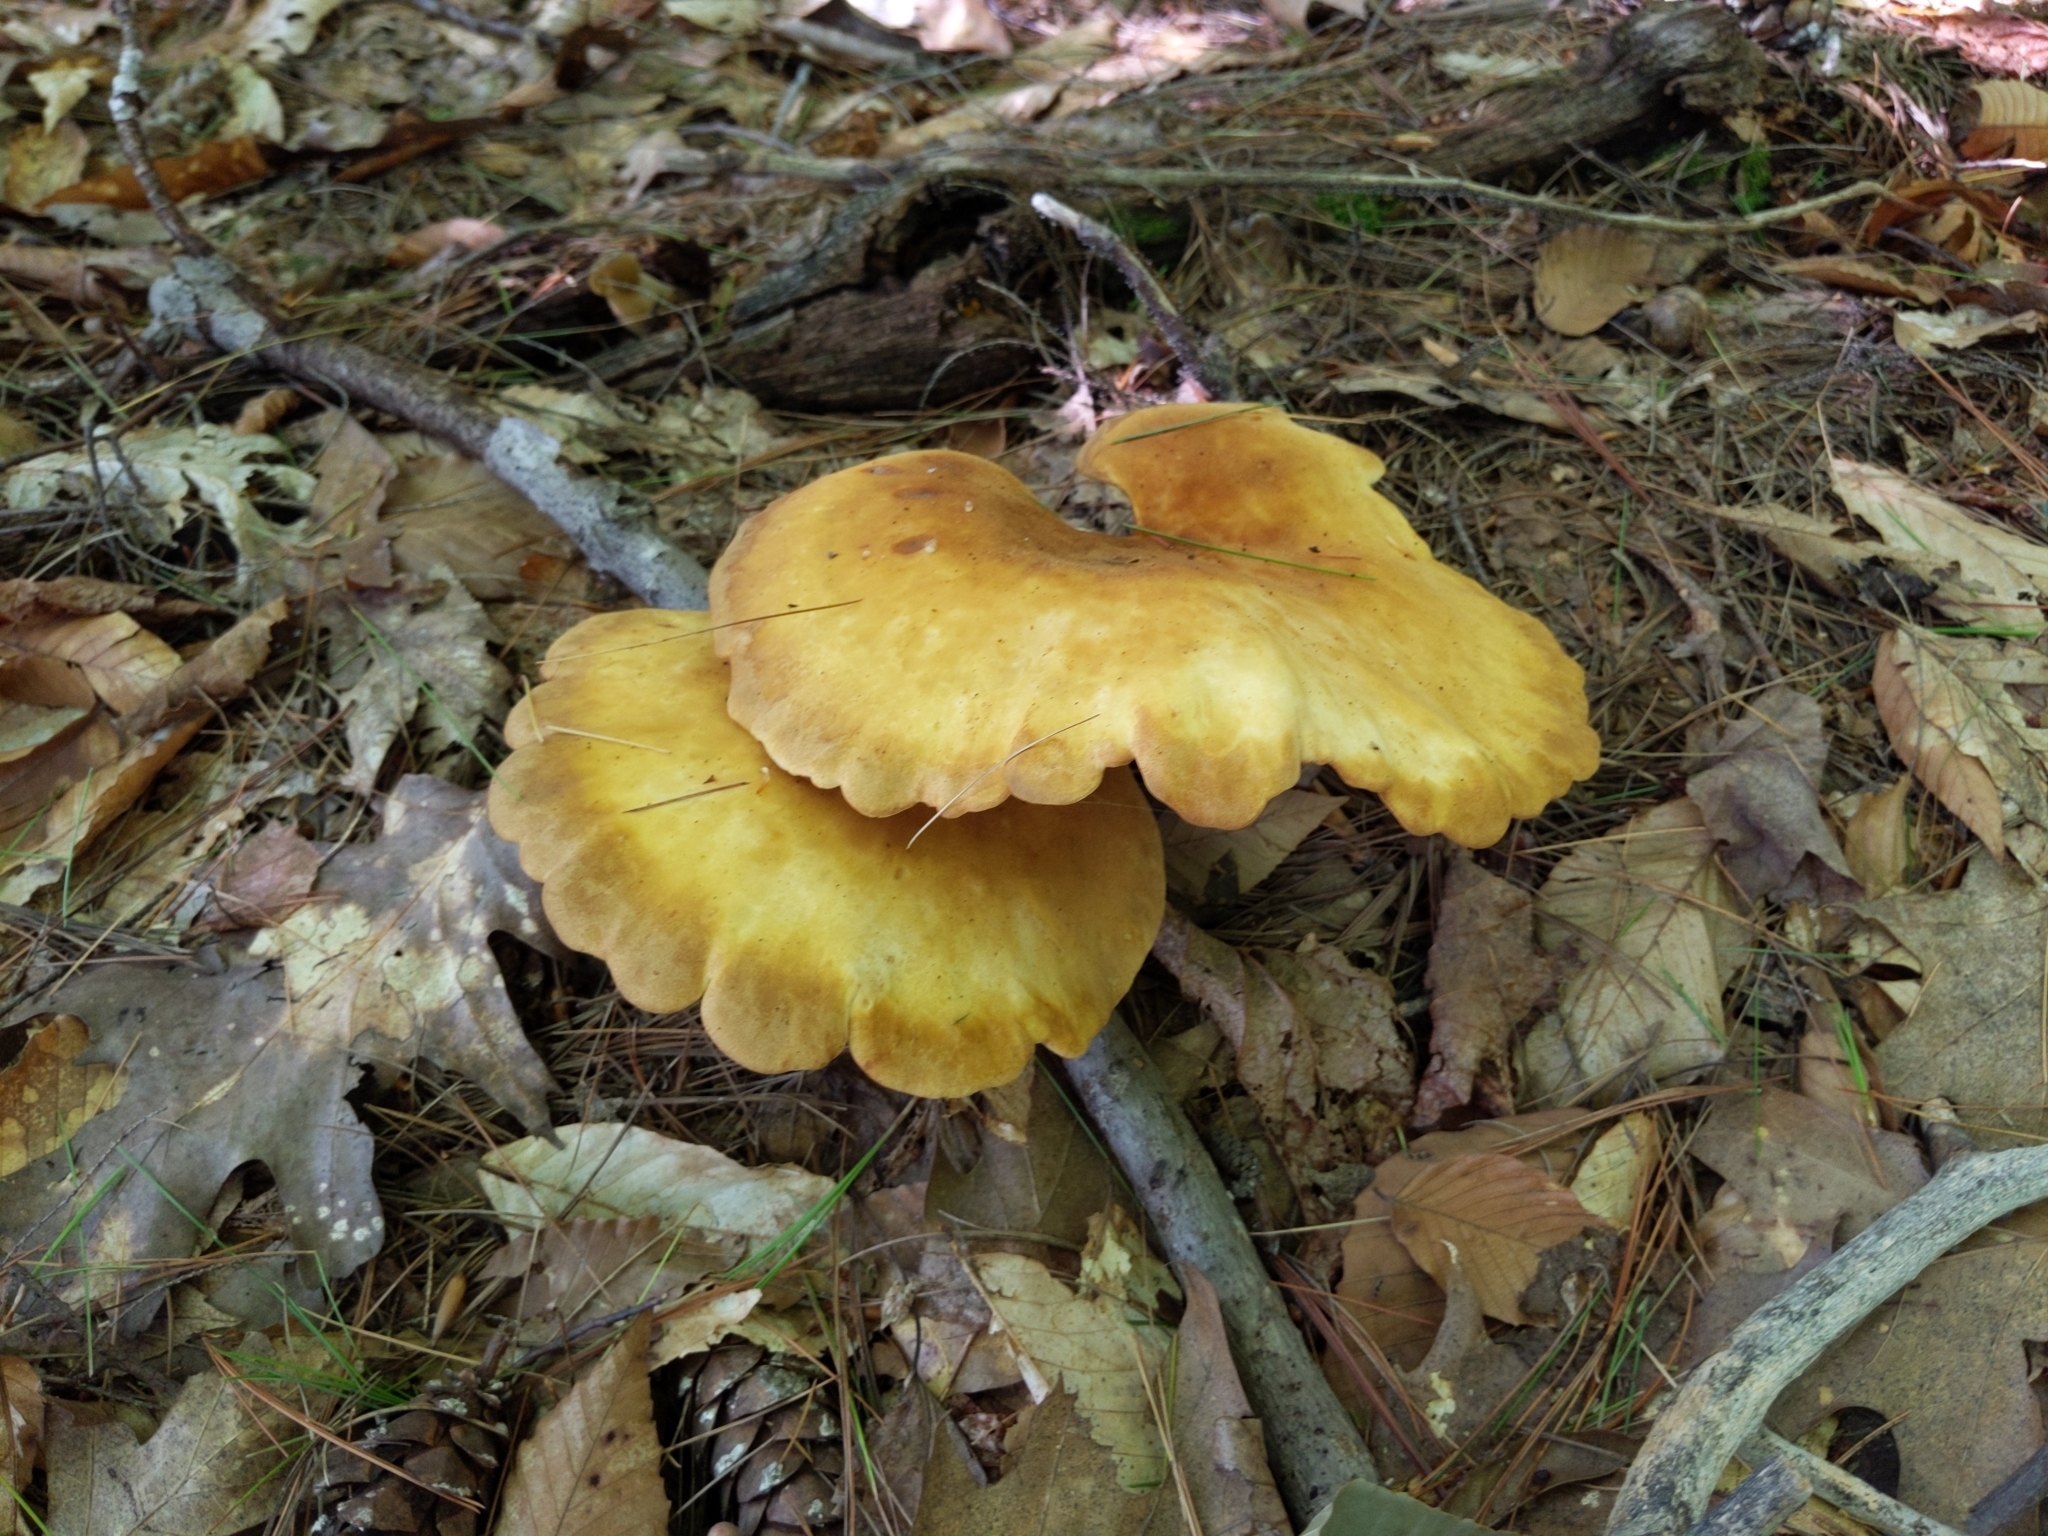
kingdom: Fungi
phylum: Basidiomycota
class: Agaricomycetes
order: Boletales
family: Tapinellaceae
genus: Tapinella
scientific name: Tapinella atrotomentosa
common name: Velvet rollrim
